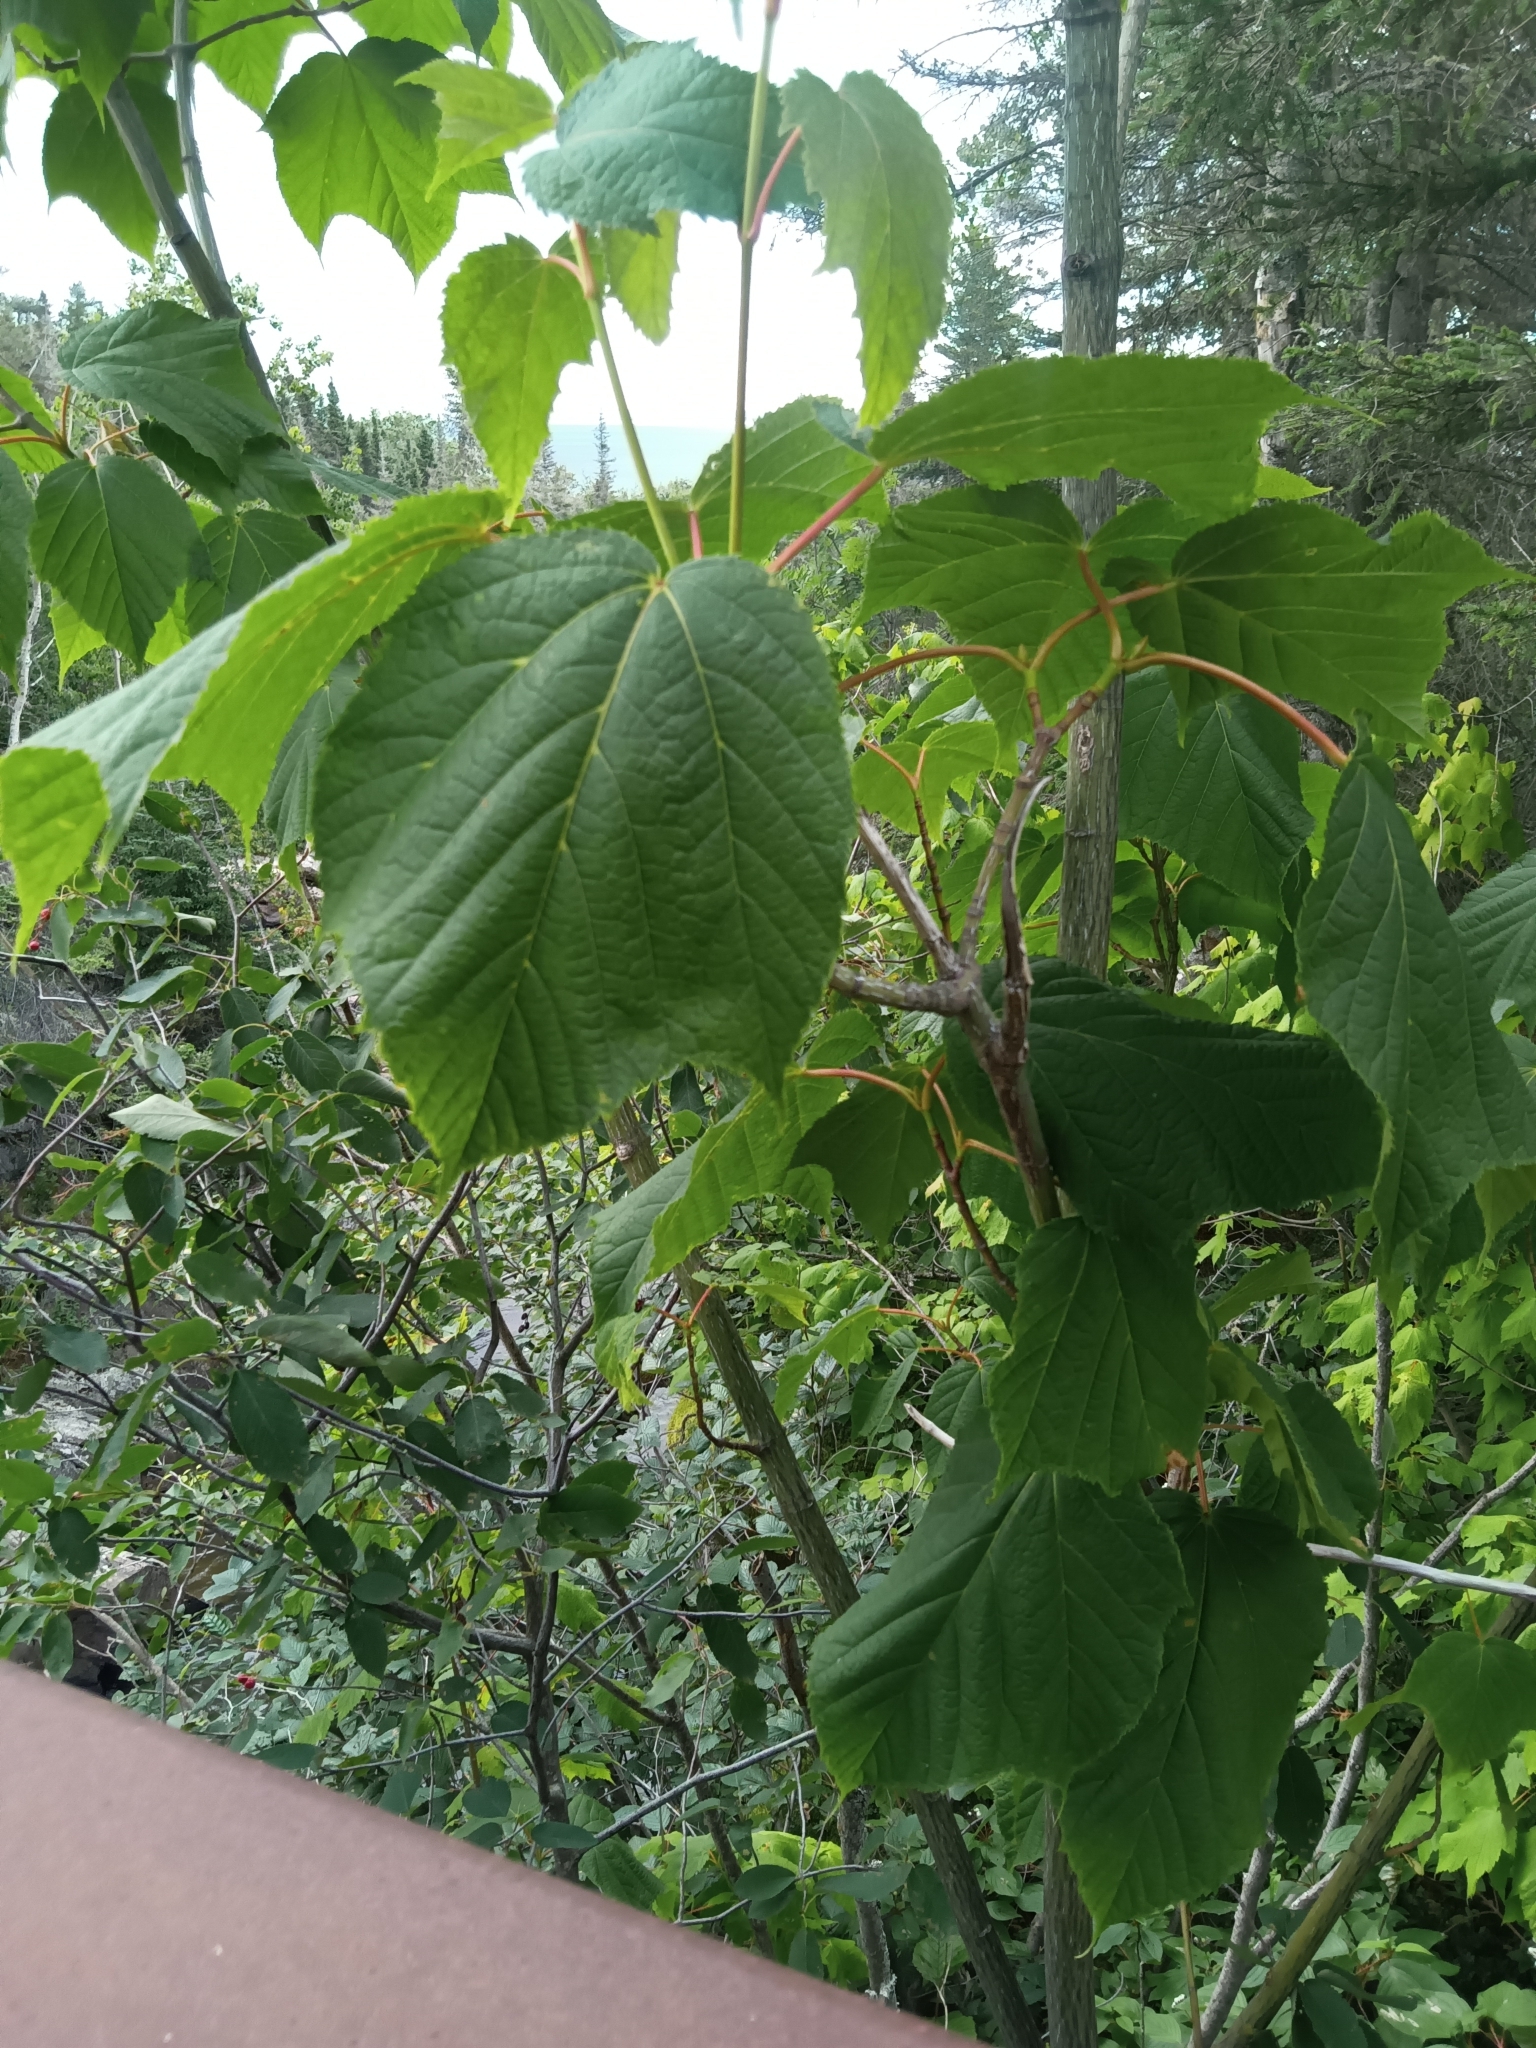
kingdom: Plantae
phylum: Tracheophyta
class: Magnoliopsida
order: Sapindales
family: Sapindaceae
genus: Acer
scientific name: Acer pensylvanicum
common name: Moosewood
